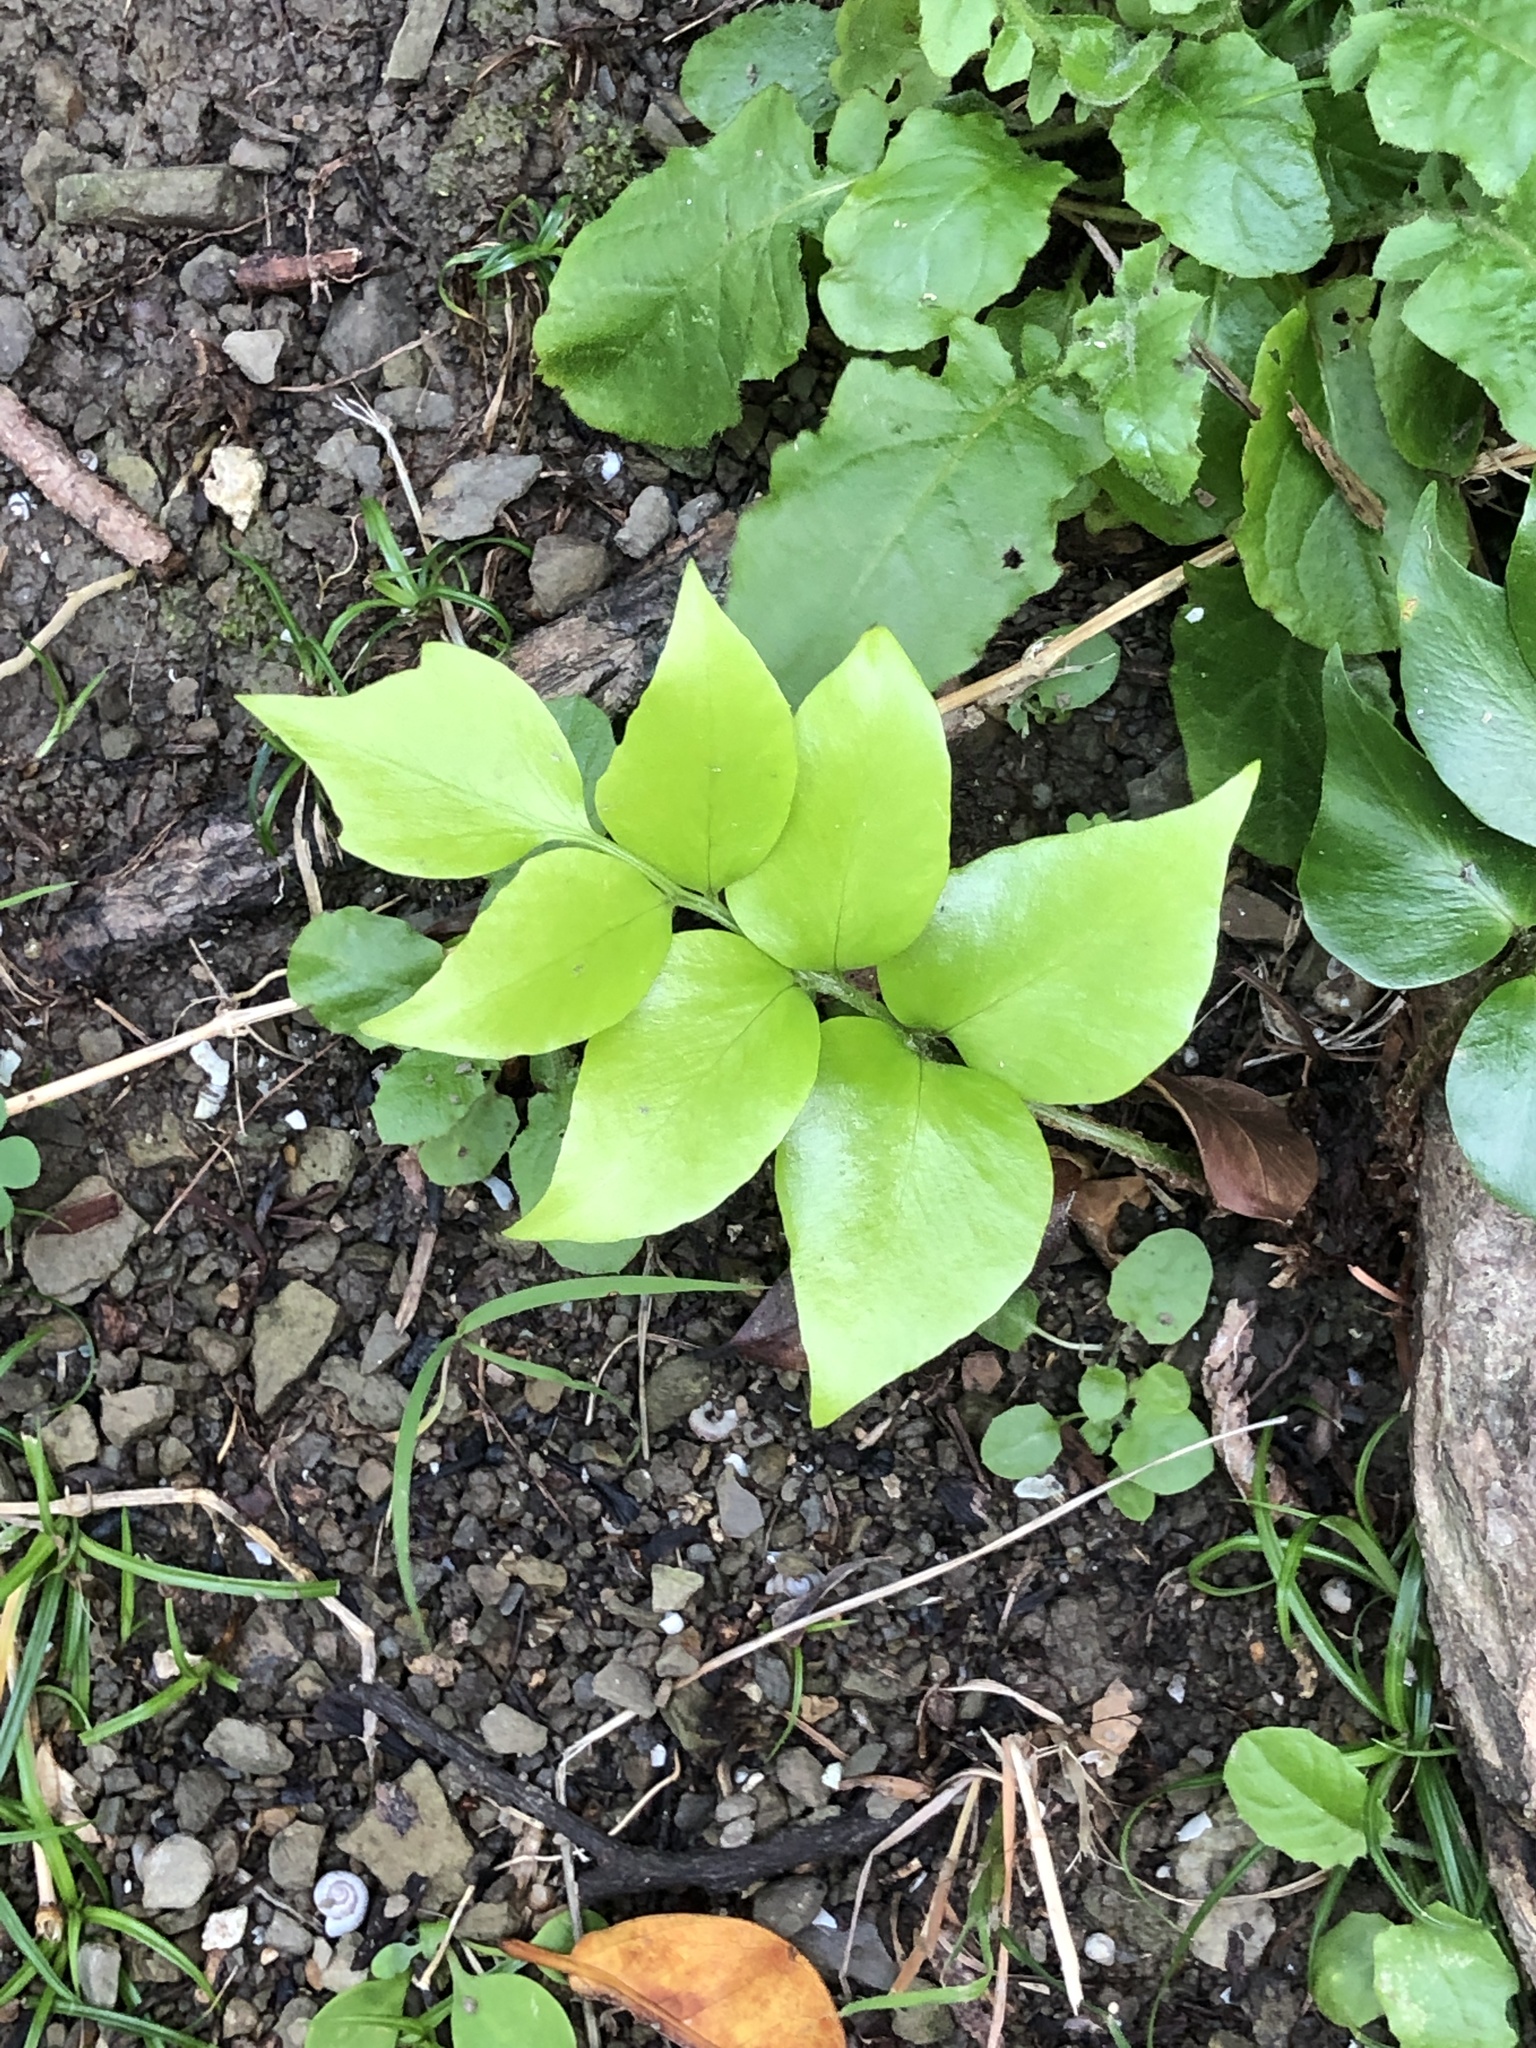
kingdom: Plantae
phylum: Tracheophyta
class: Polypodiopsida
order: Polypodiales
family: Dryopteridaceae
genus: Cyrtomium
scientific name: Cyrtomium falcatum
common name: House holly-fern
